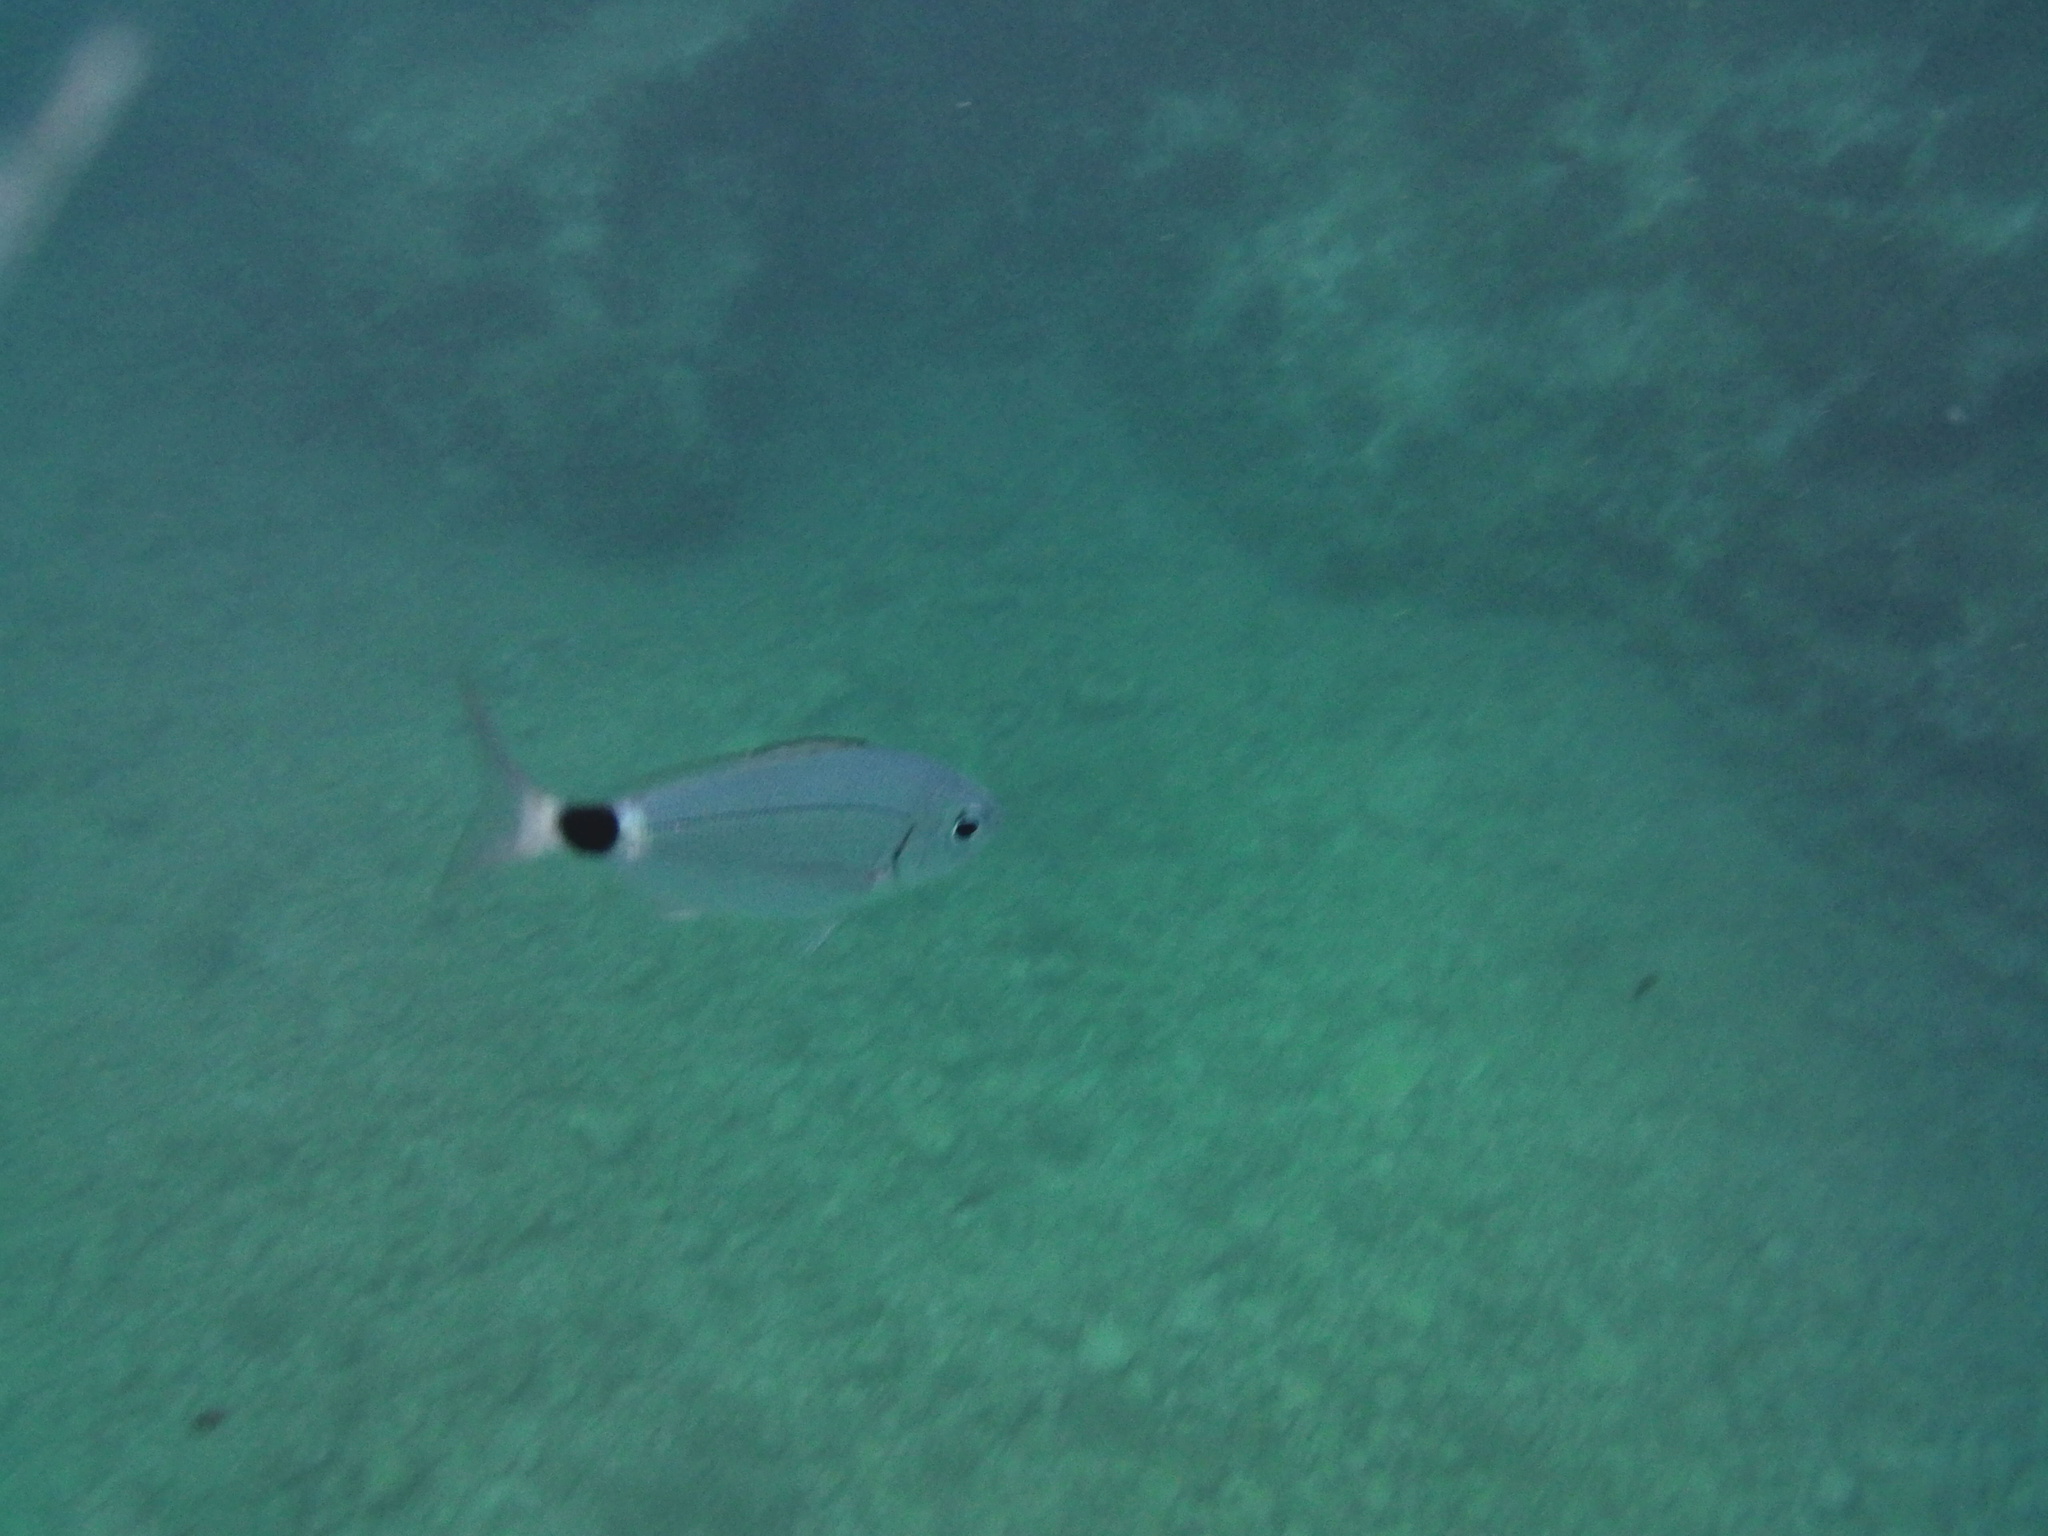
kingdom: Animalia
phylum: Chordata
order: Perciformes
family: Sparidae
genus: Oblada
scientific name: Oblada melanura
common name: Saddled seabream
